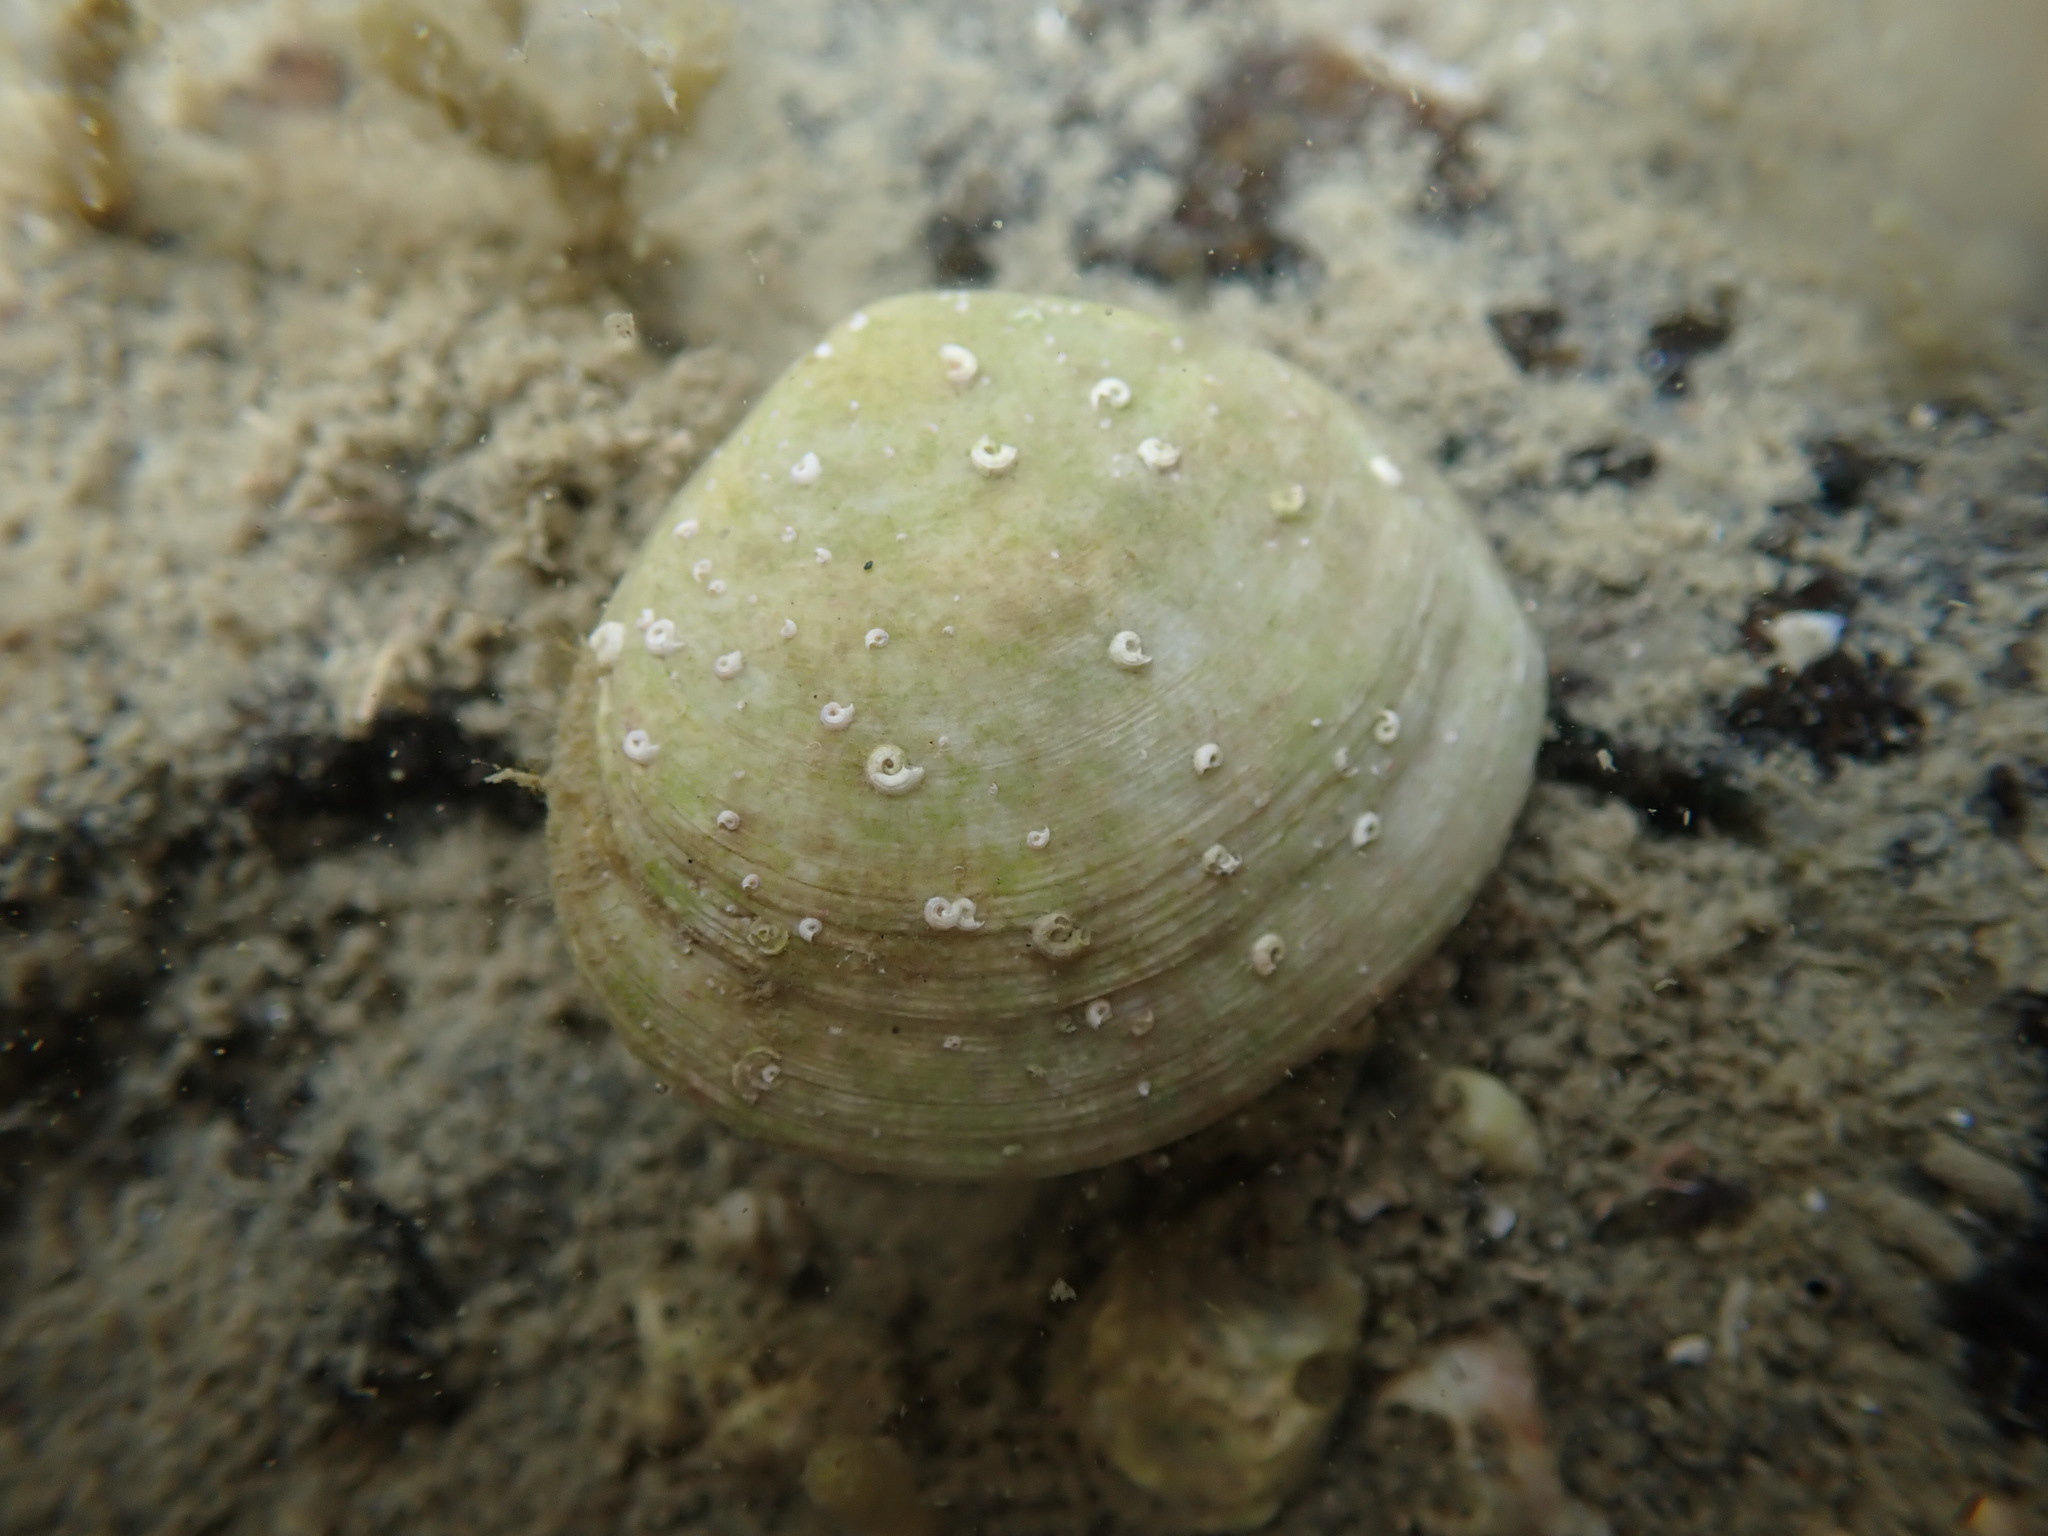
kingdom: Animalia
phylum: Mollusca
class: Bivalvia
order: Cardiida
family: Tellinidae
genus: Pseudarcopagia
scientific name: Pseudarcopagia disculus
